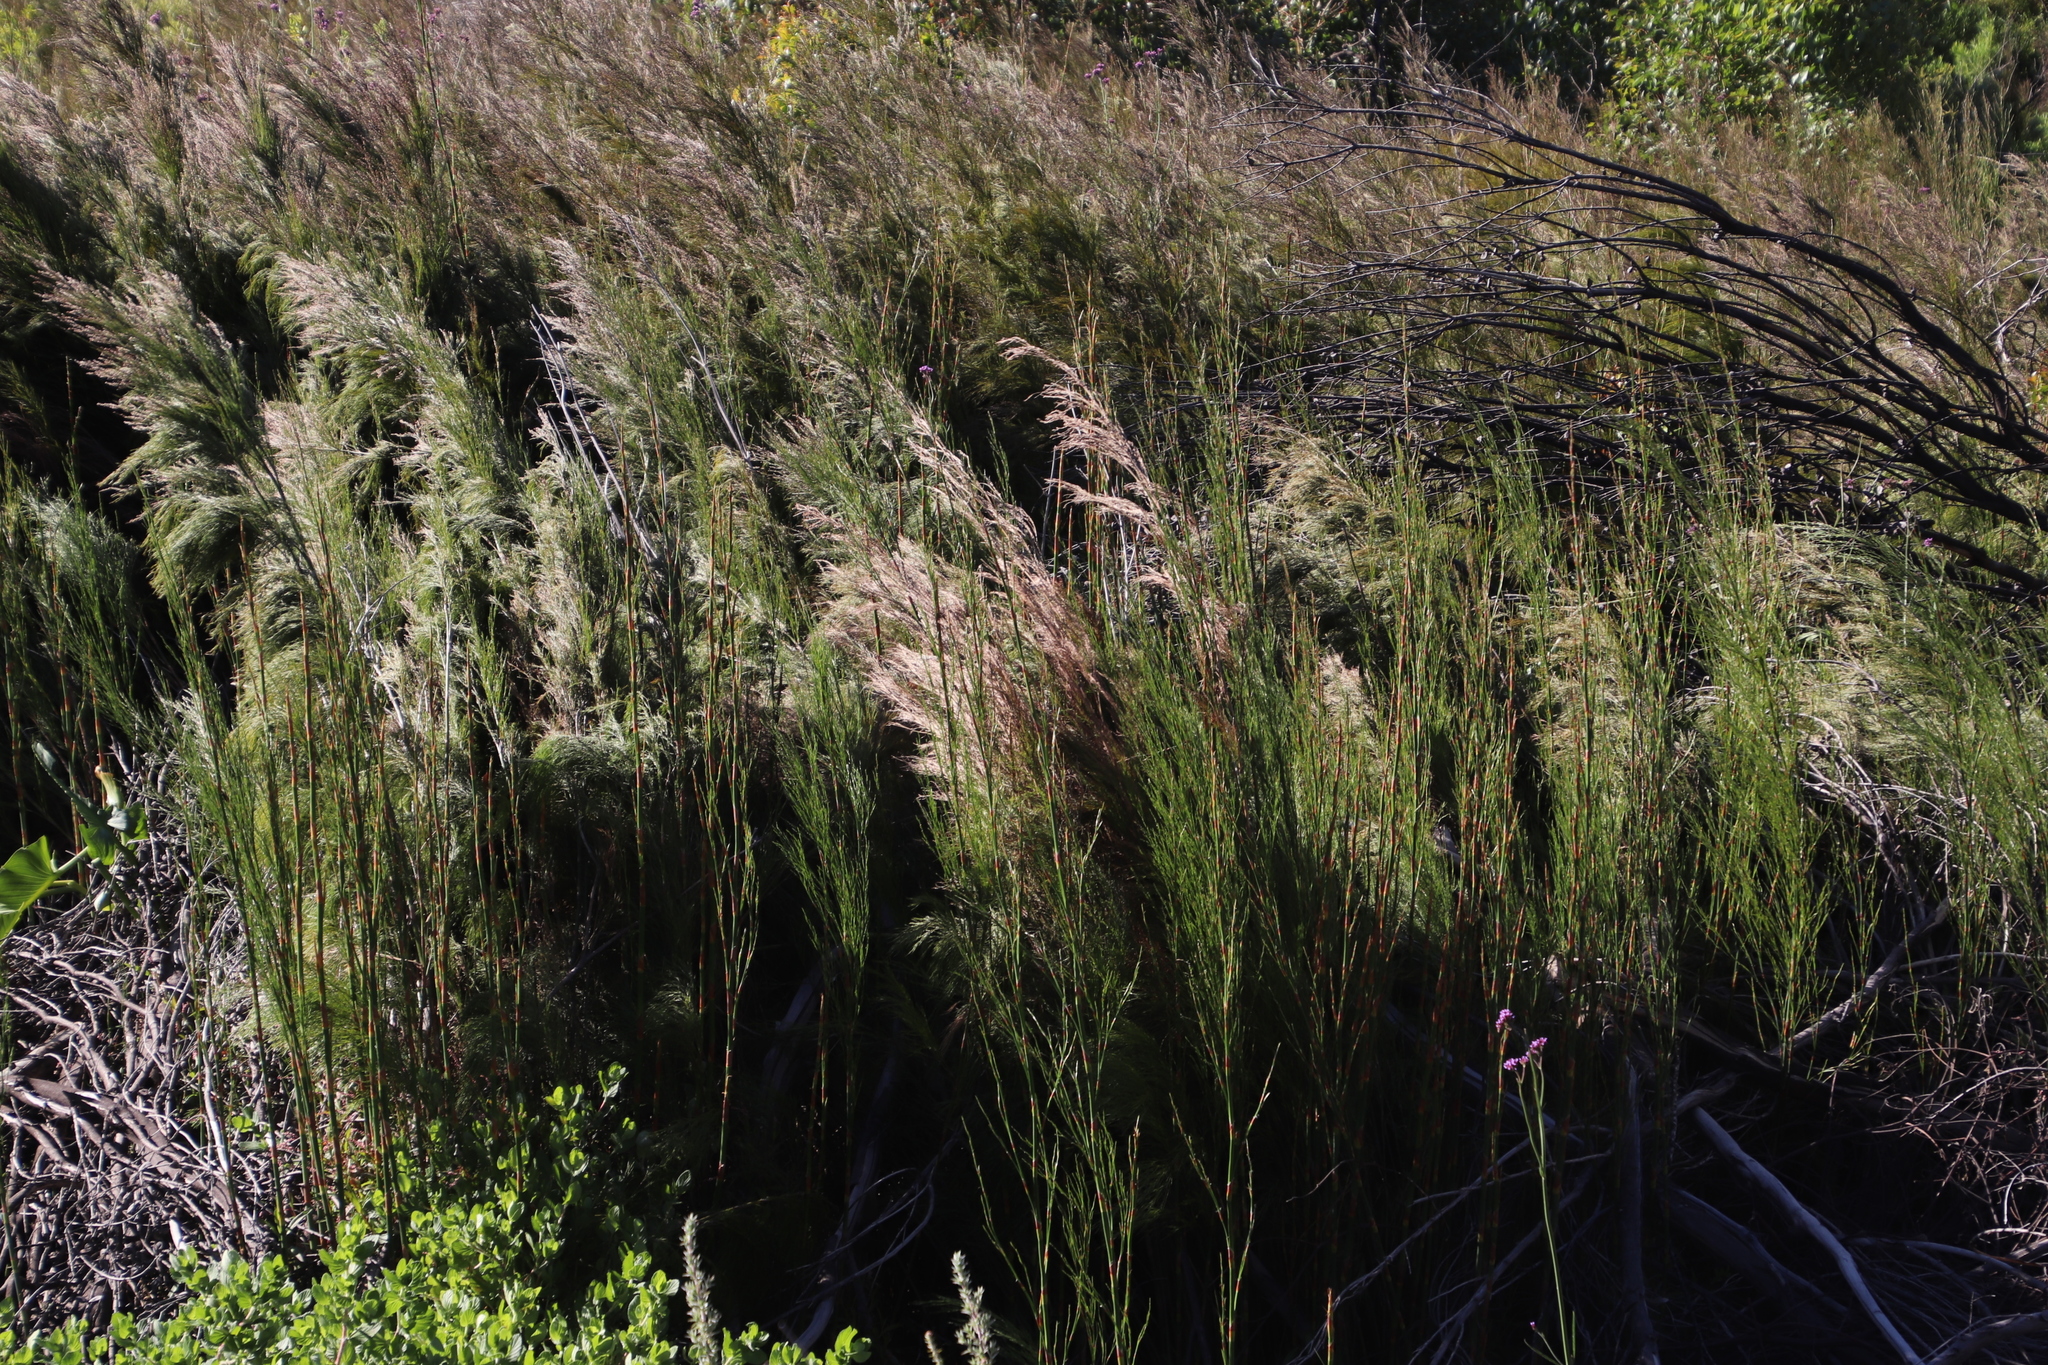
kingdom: Plantae
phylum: Tracheophyta
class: Liliopsida
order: Poales
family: Restionaceae
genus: Restio
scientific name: Restio paniculatus
